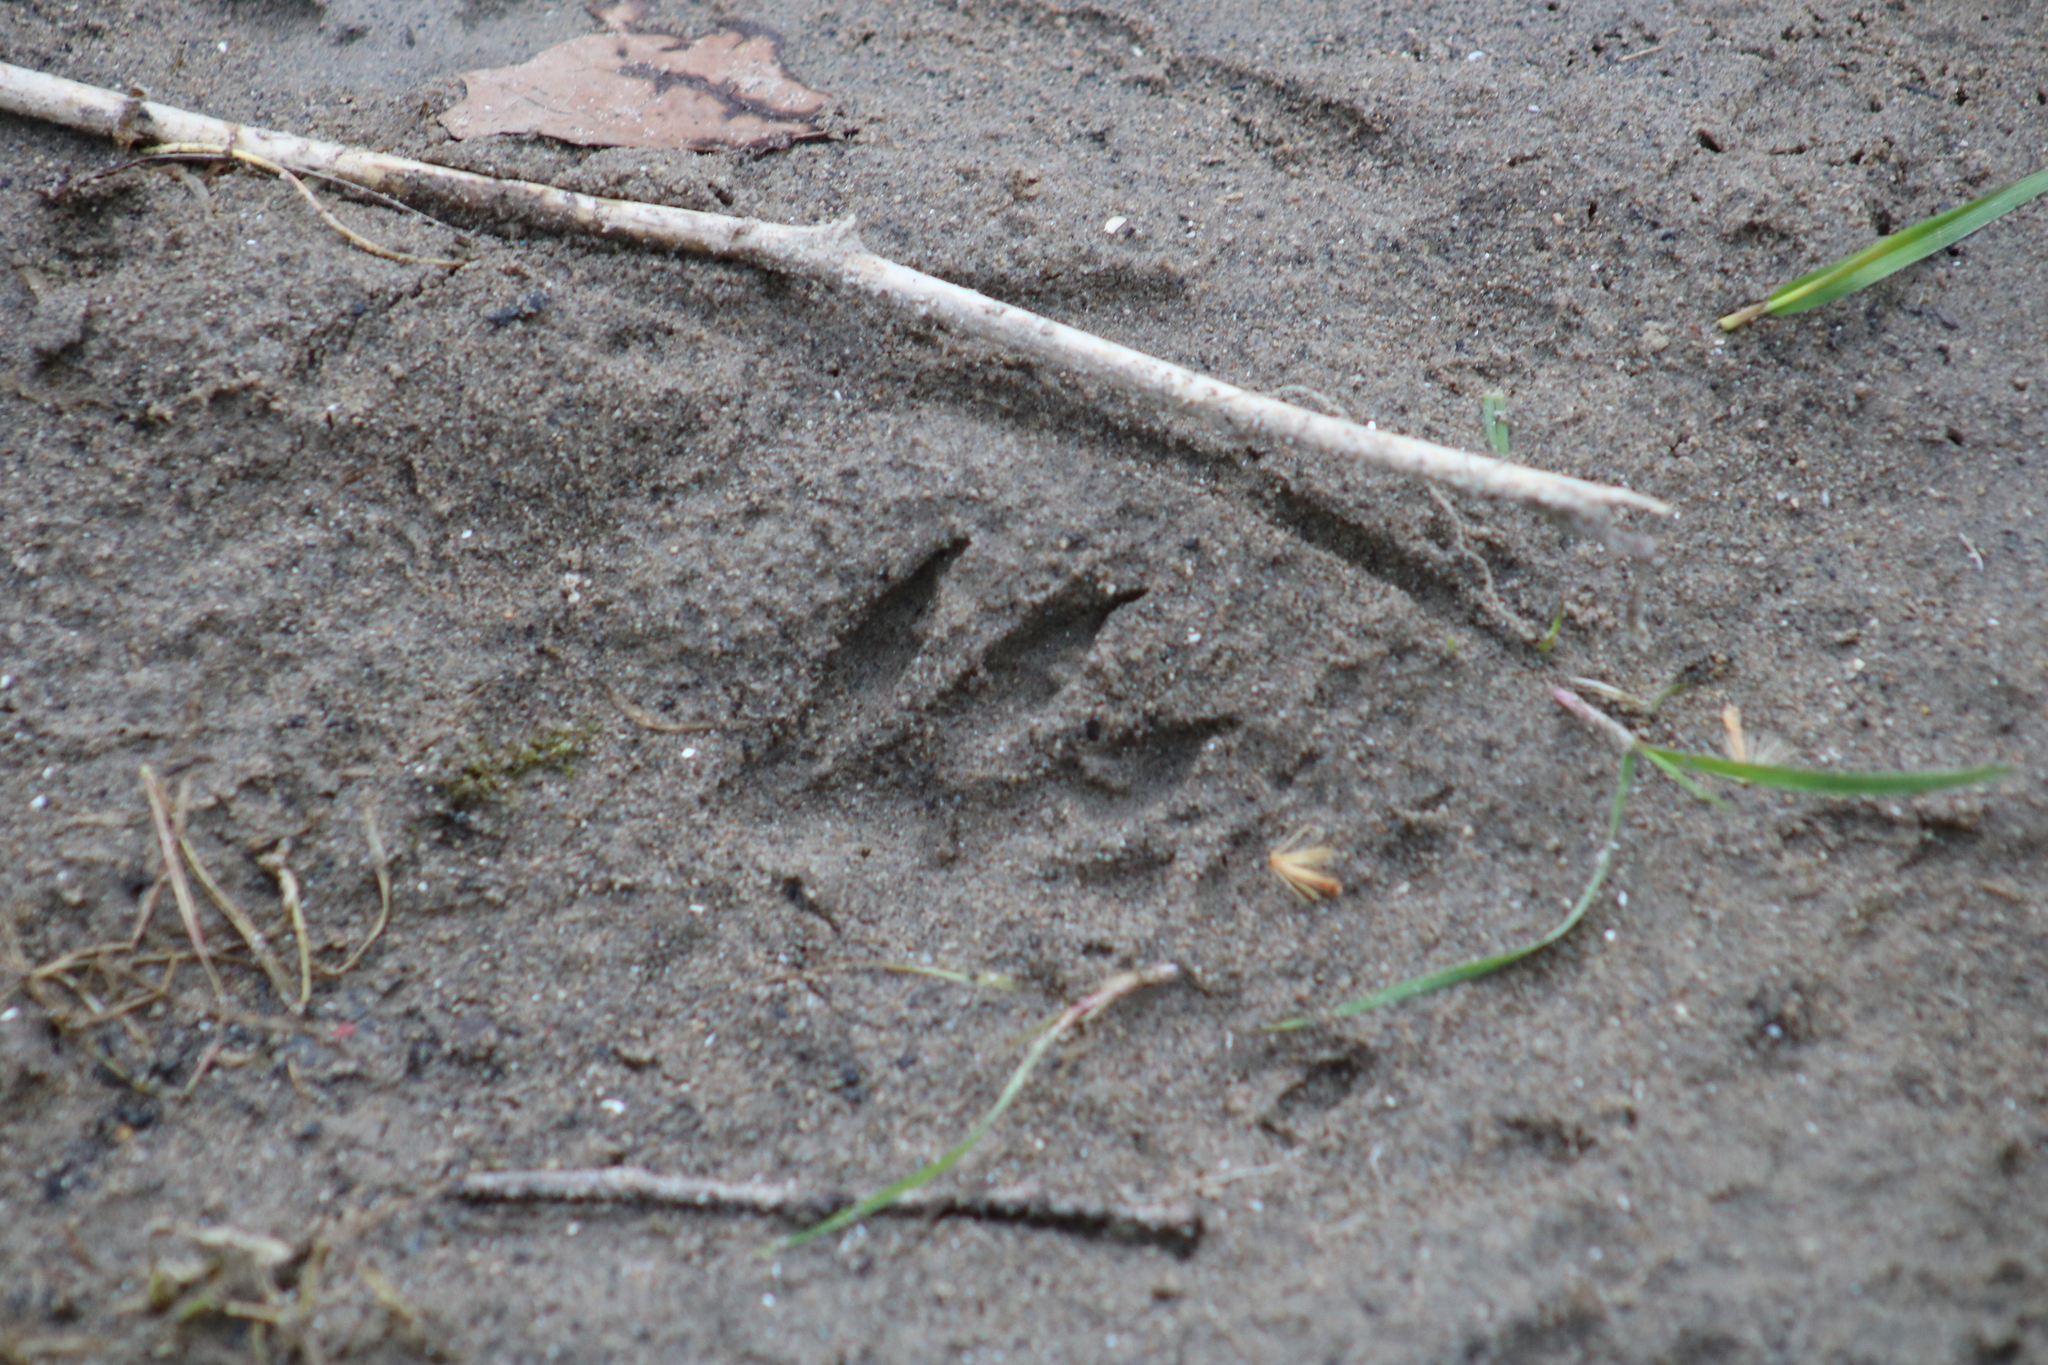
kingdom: Animalia
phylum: Chordata
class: Mammalia
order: Carnivora
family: Procyonidae
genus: Procyon
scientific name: Procyon lotor
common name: Raccoon
